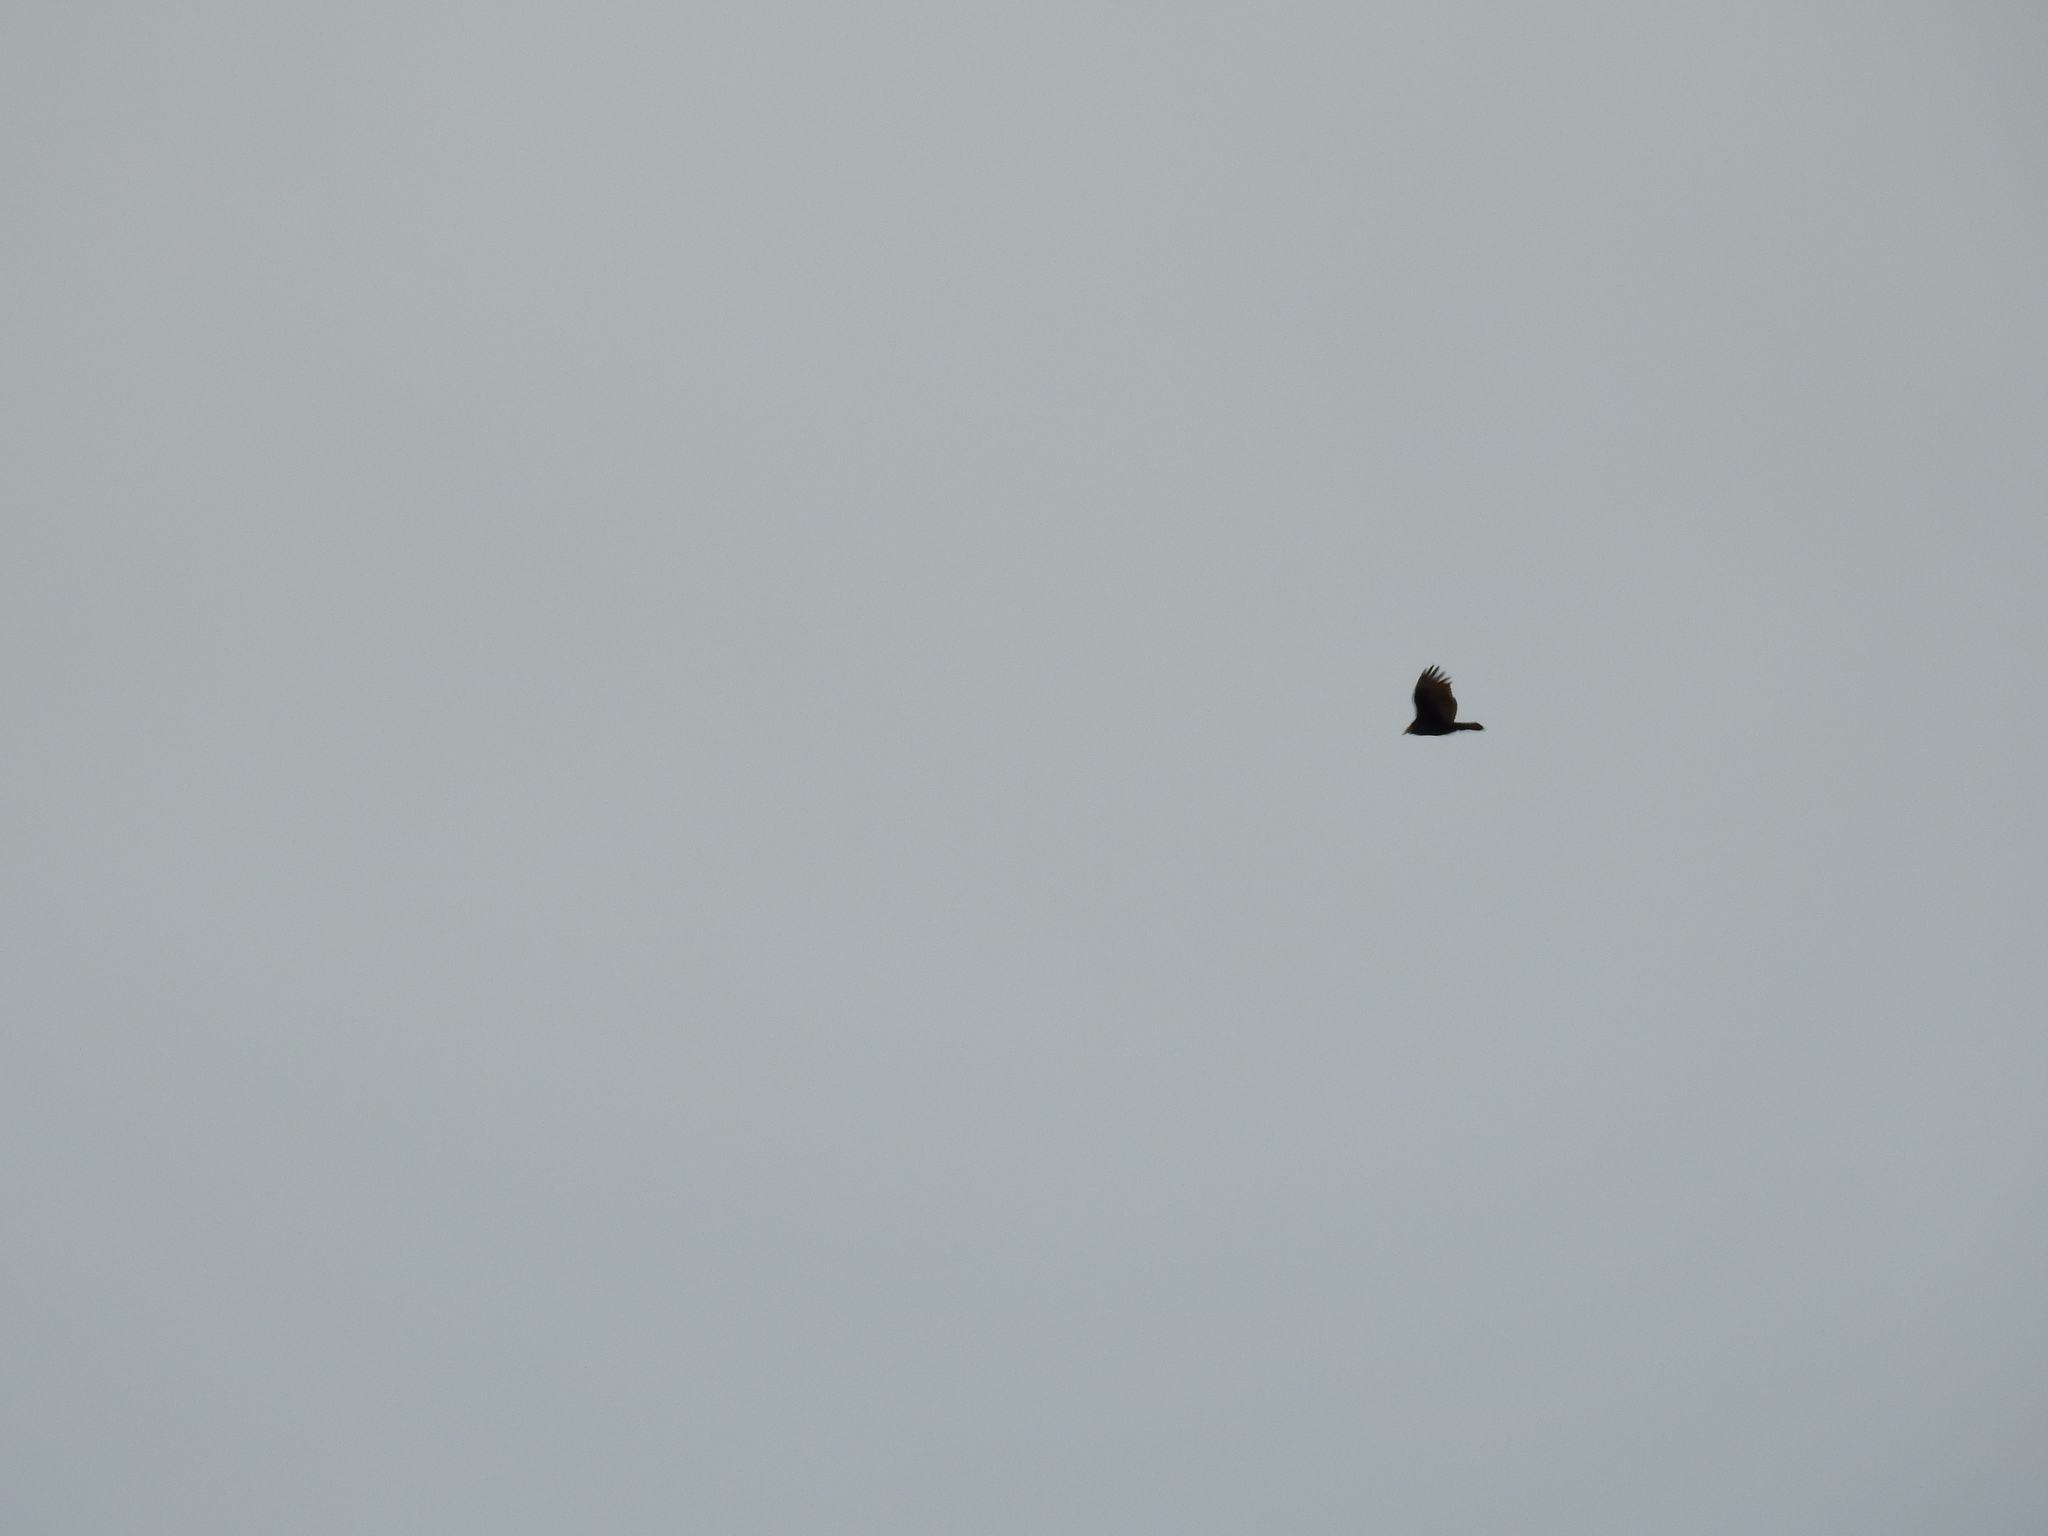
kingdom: Animalia
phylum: Chordata
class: Aves
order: Accipitriformes
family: Cathartidae
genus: Cathartes
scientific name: Cathartes aura
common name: Turkey vulture
